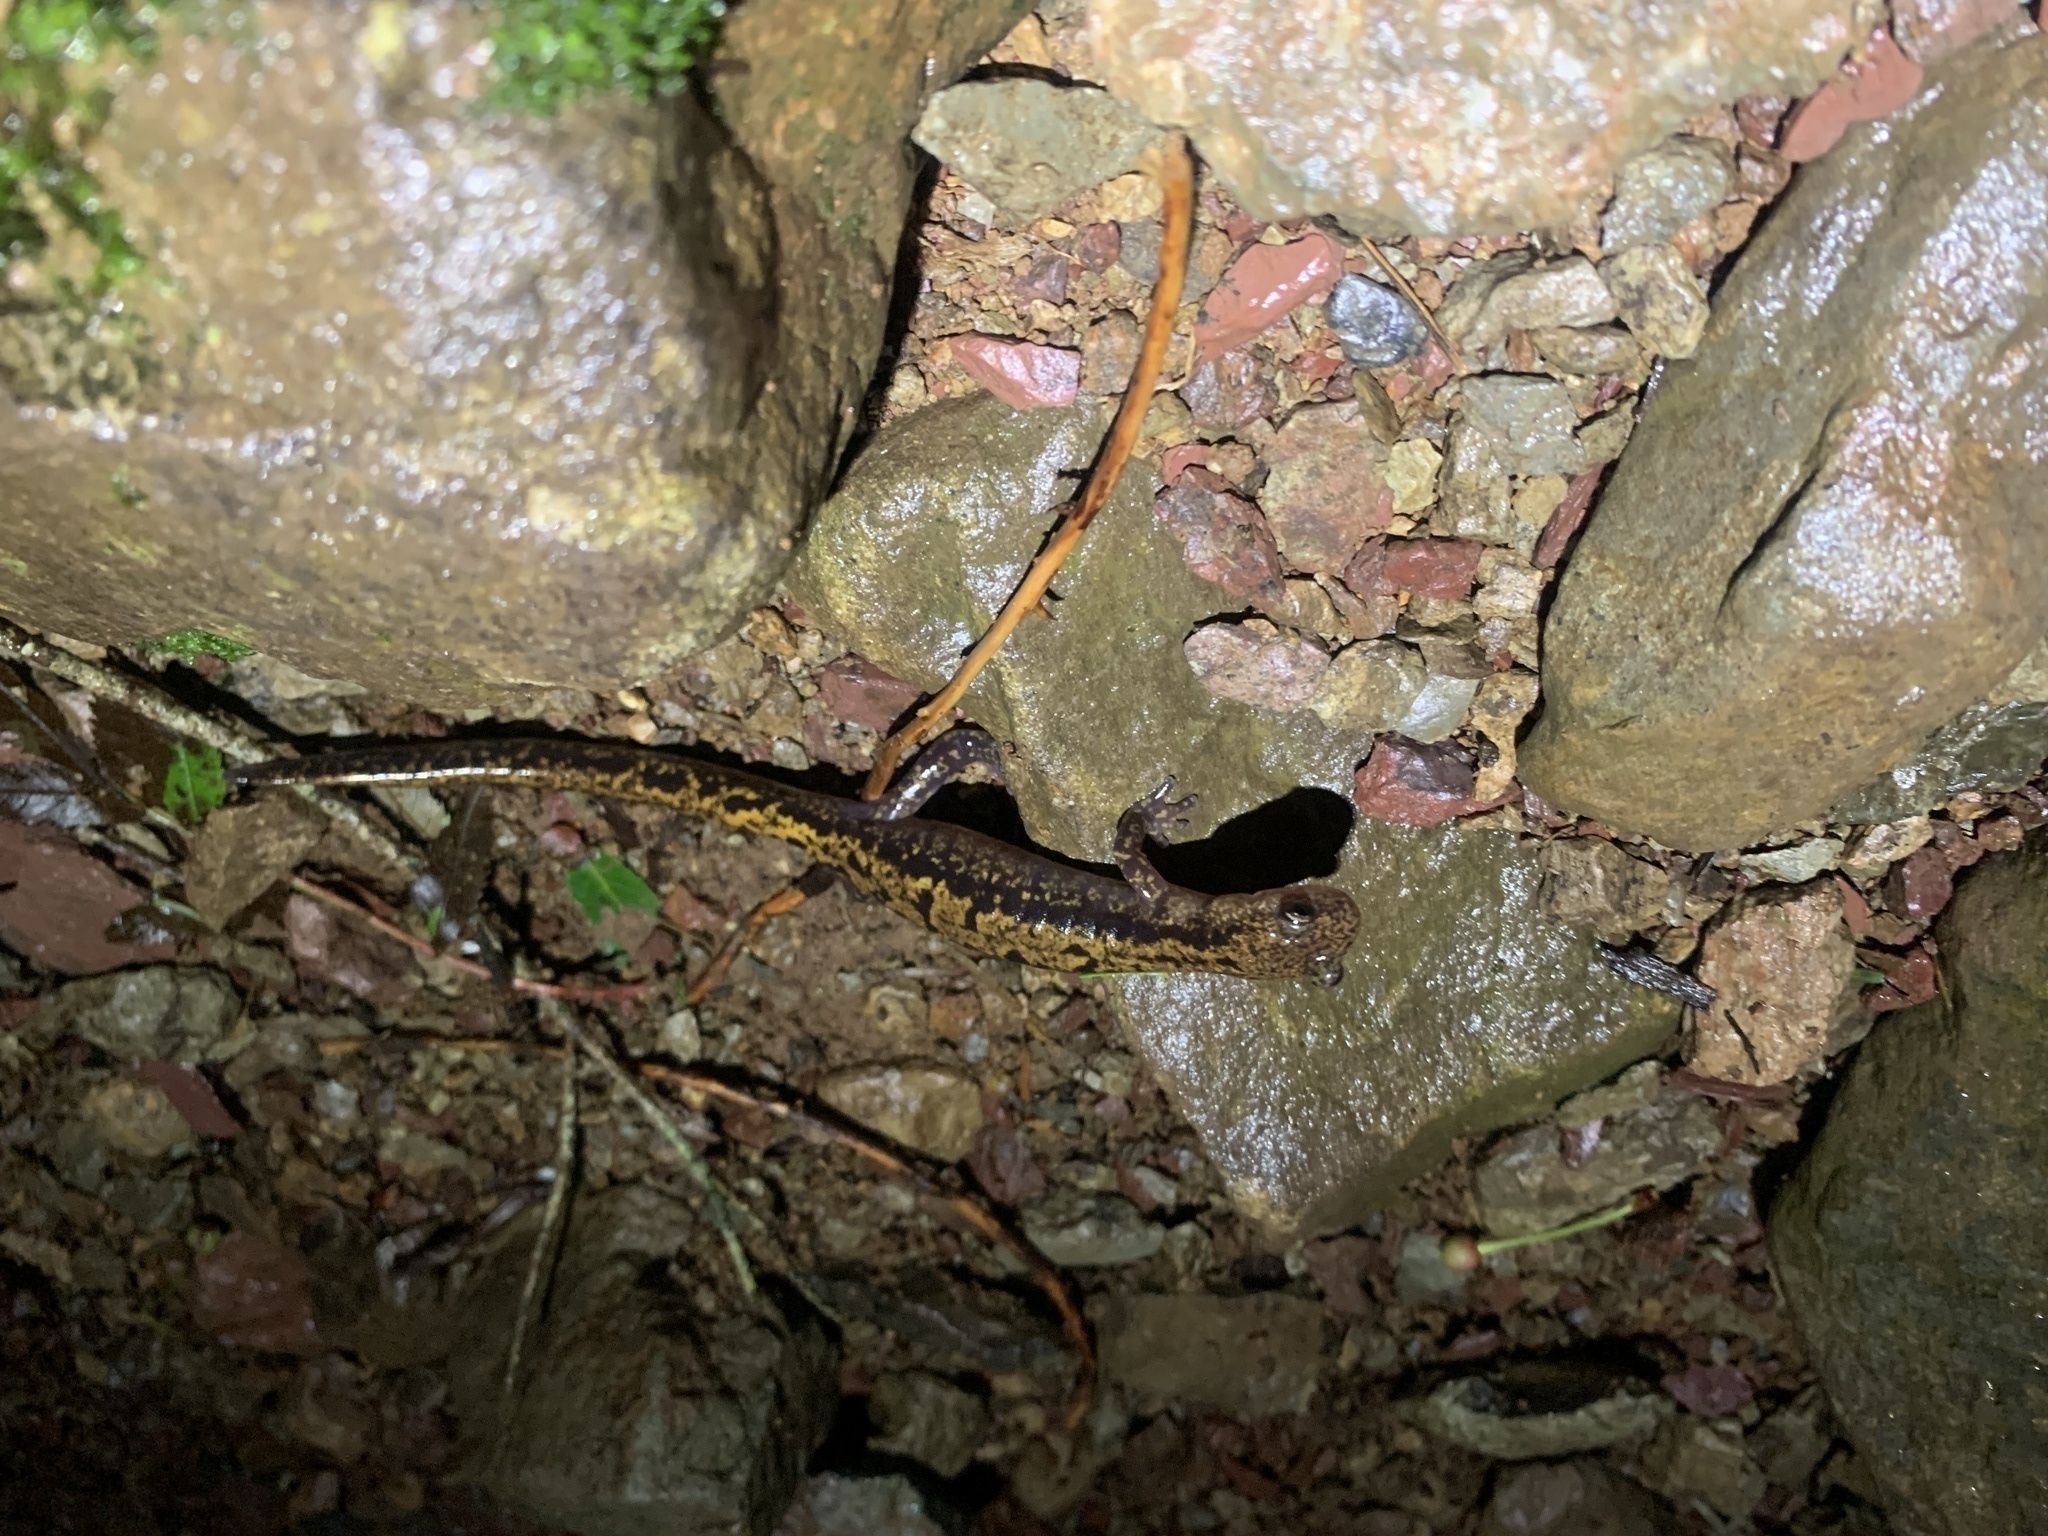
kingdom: Animalia
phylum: Chordata
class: Amphibia
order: Caudata
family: Hynobiidae
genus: Onychodactylus
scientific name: Onychodactylus japonicus
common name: Japanese clawed salamander
